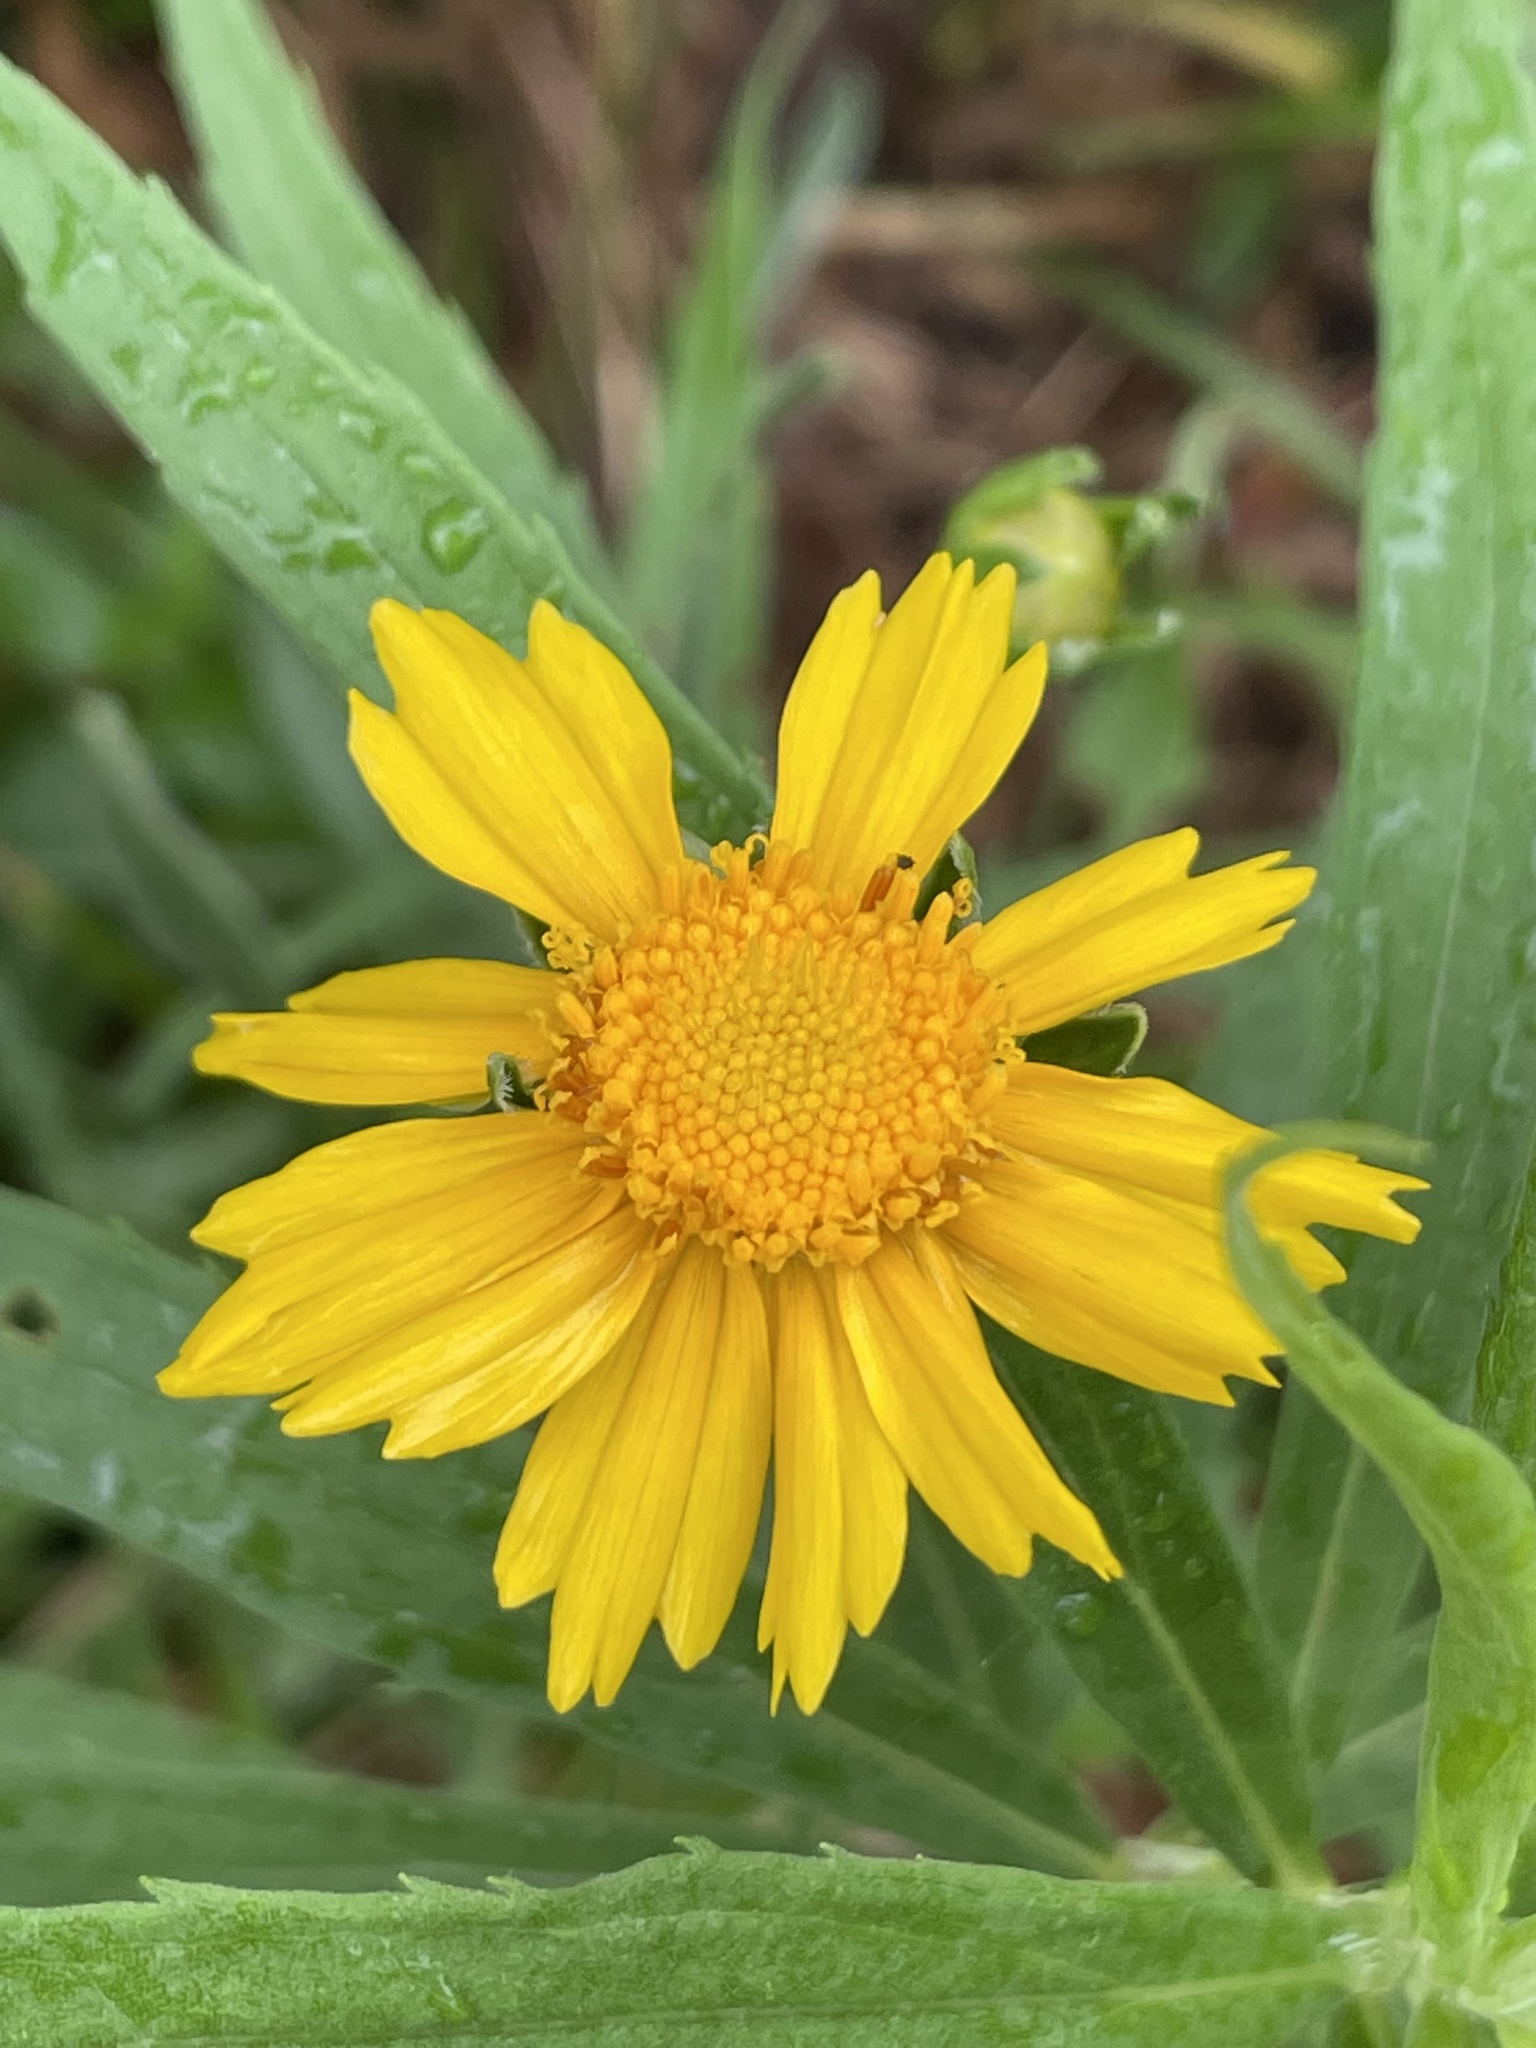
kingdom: Plantae
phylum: Tracheophyta
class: Magnoliopsida
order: Asterales
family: Asteraceae
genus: Coreopsis
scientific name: Coreopsis lanceolata
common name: Garden coreopsis
